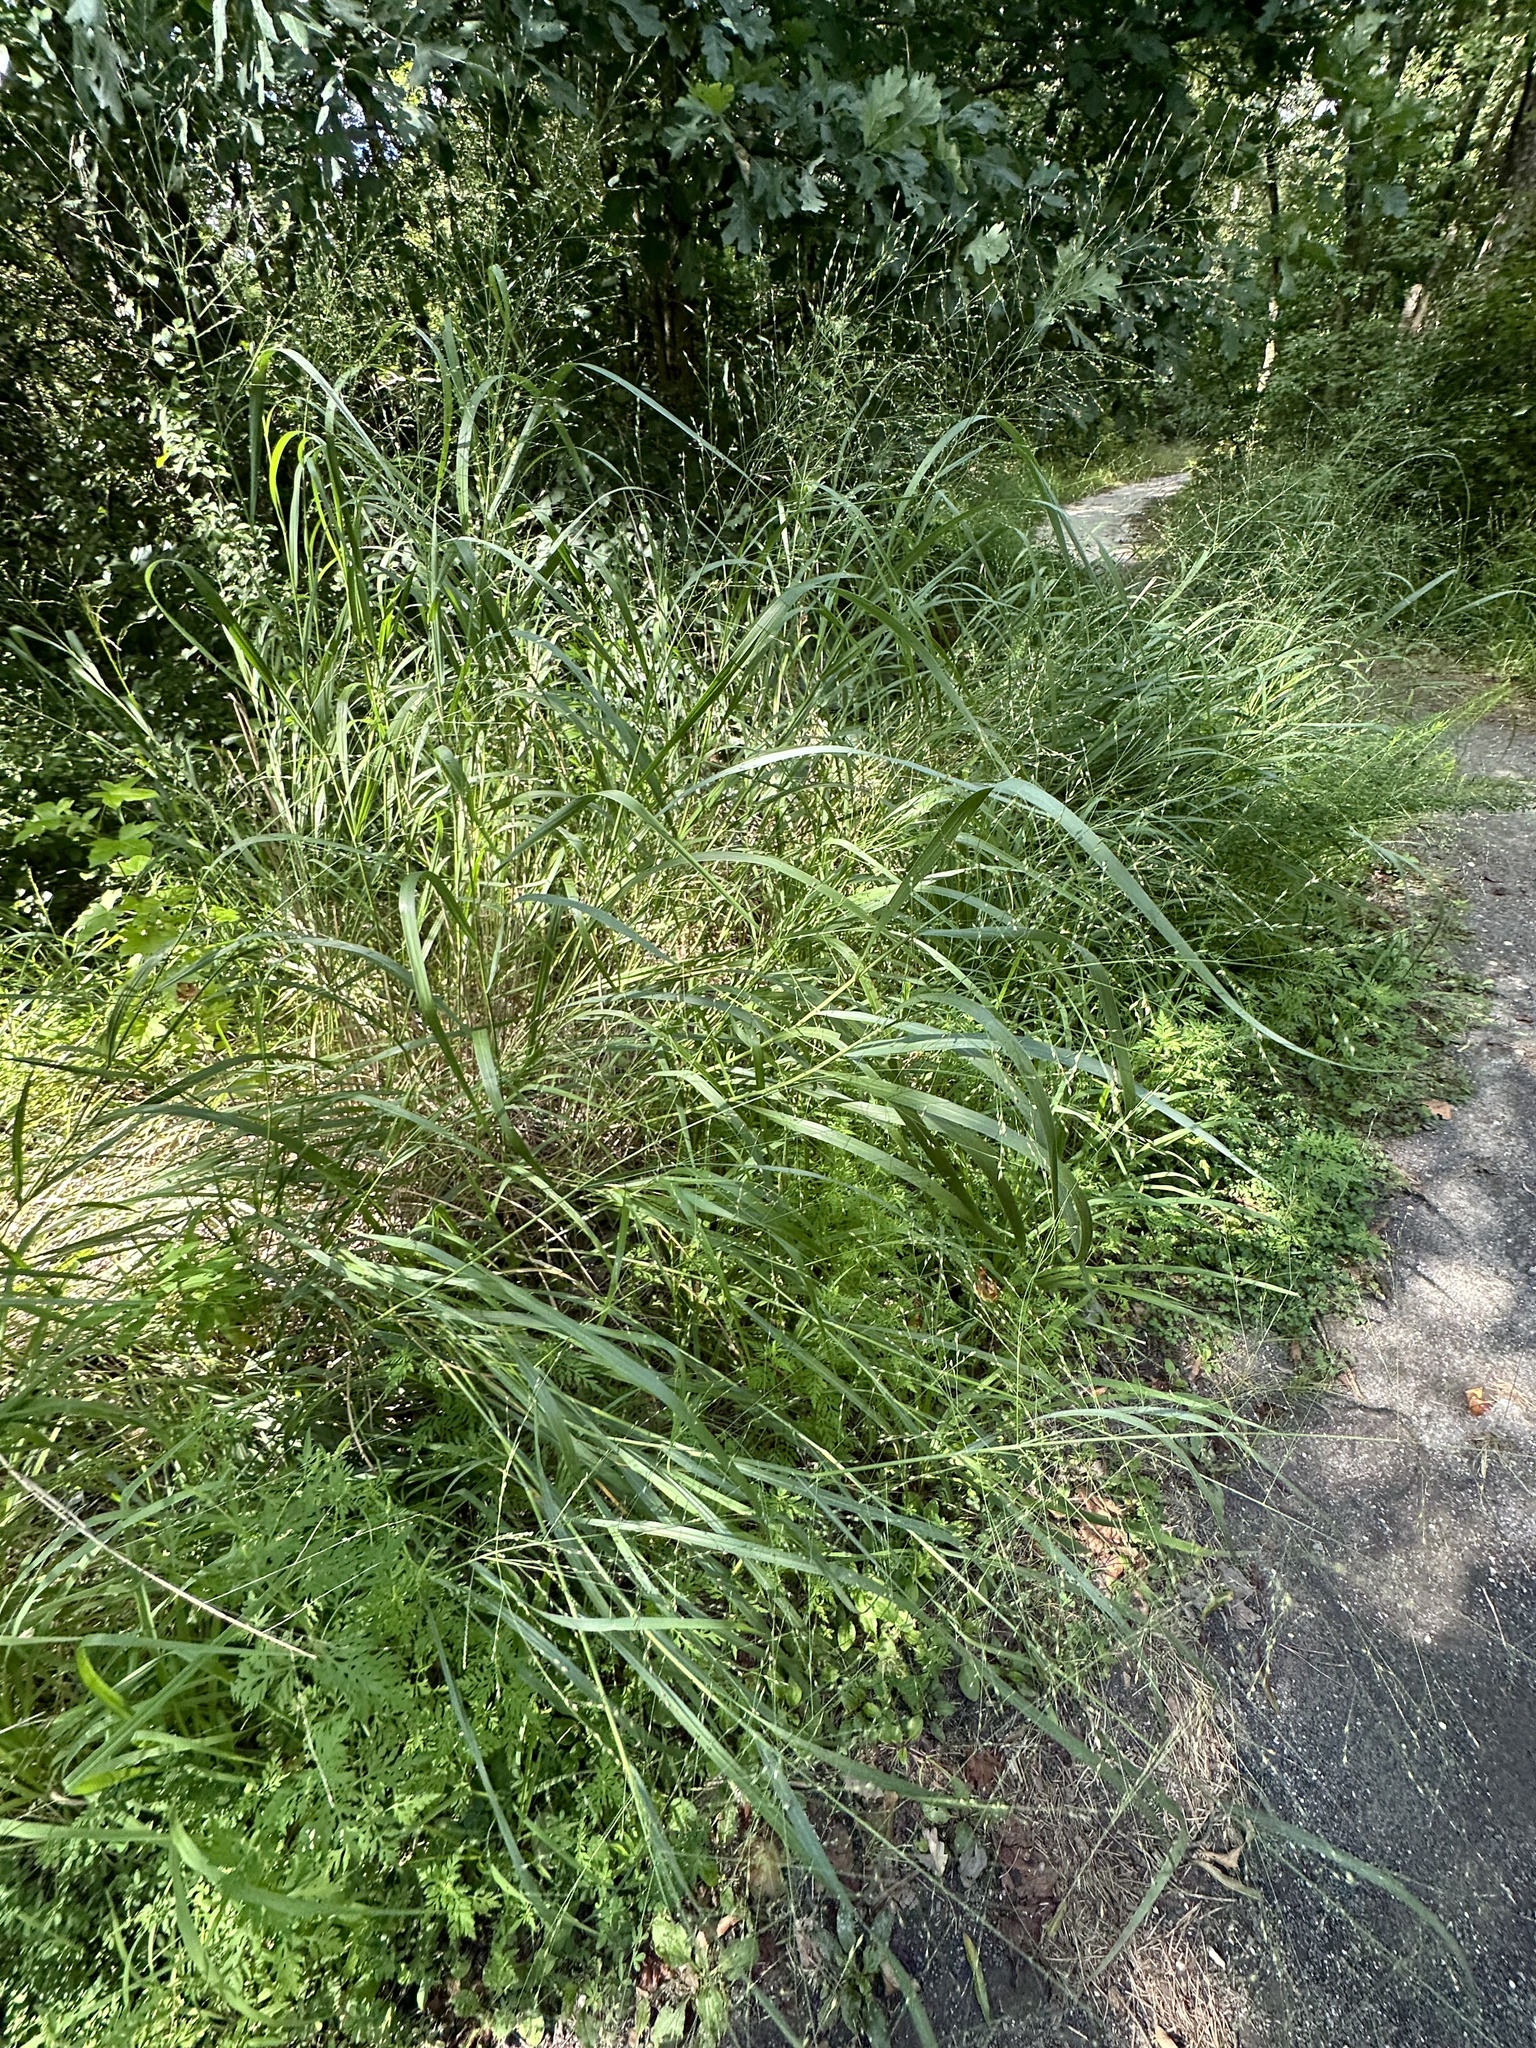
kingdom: Animalia
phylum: Arthropoda
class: Insecta
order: Lepidoptera
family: Papilionidae
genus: Papilio
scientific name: Papilio troilus
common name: Spicebush swallowtail
